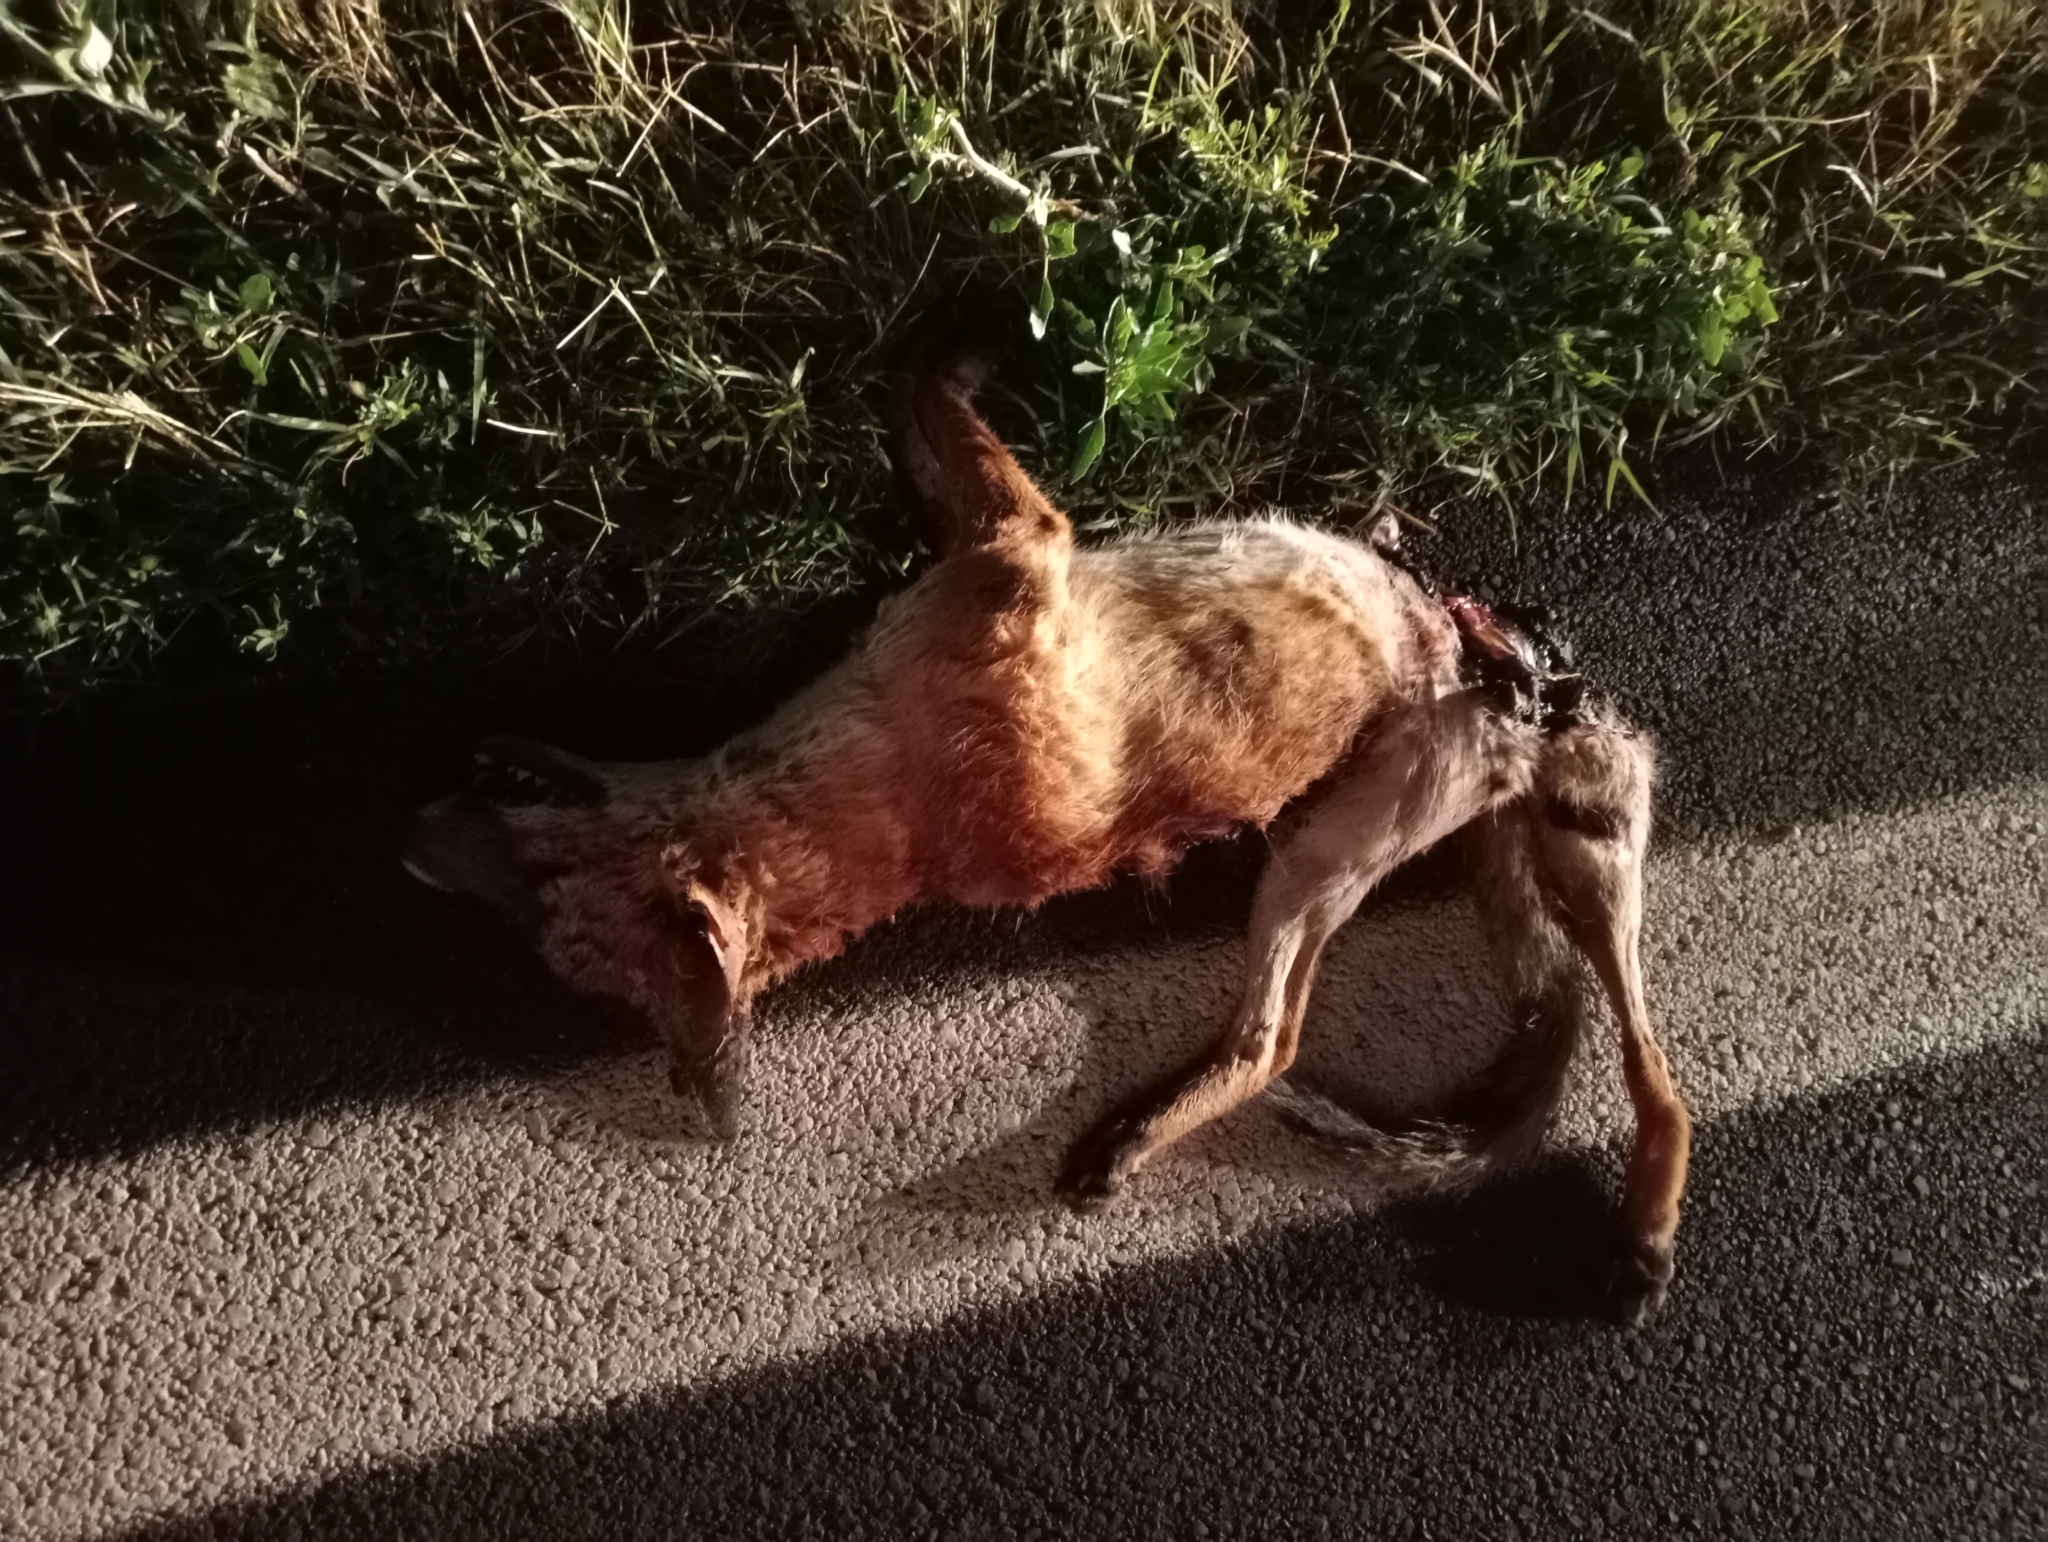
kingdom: Animalia
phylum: Chordata
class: Mammalia
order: Carnivora
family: Canidae
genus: Vulpes
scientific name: Vulpes vulpes
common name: Red fox
